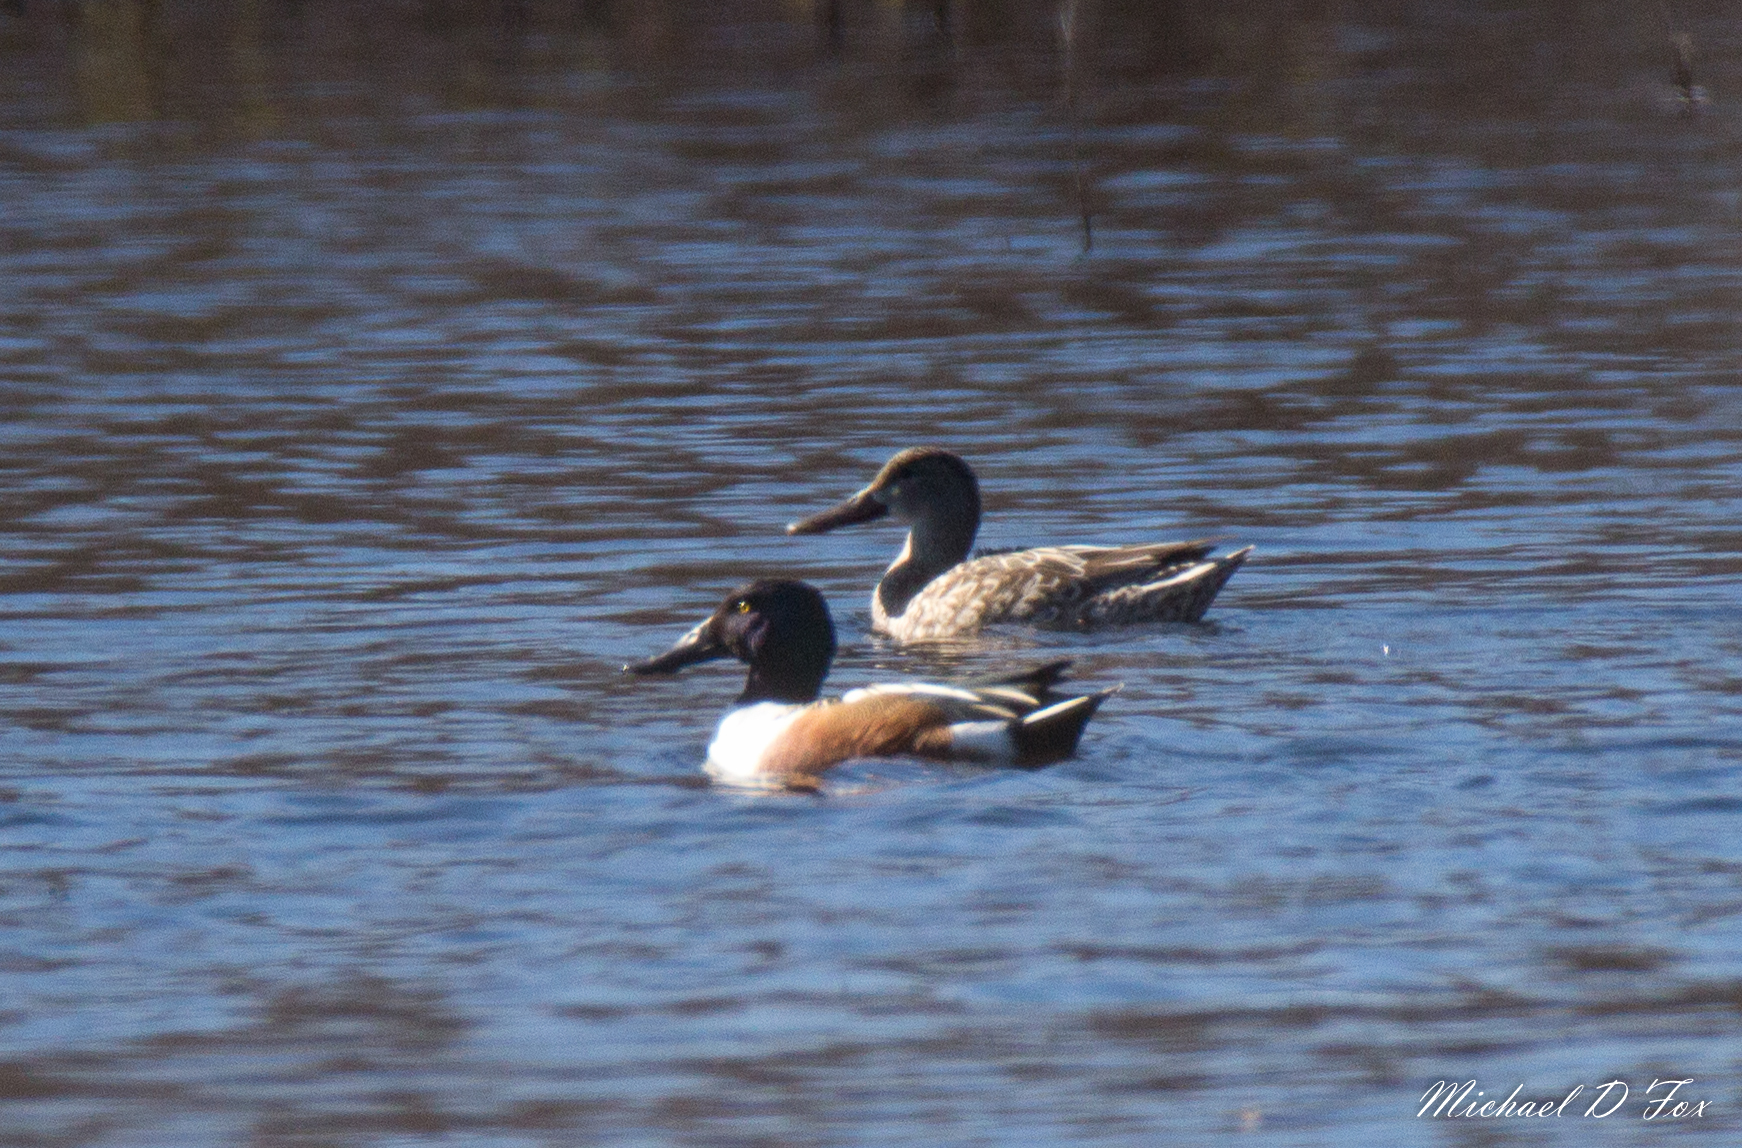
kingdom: Animalia
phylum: Chordata
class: Aves
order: Anseriformes
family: Anatidae
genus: Spatula
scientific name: Spatula clypeata
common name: Northern shoveler
